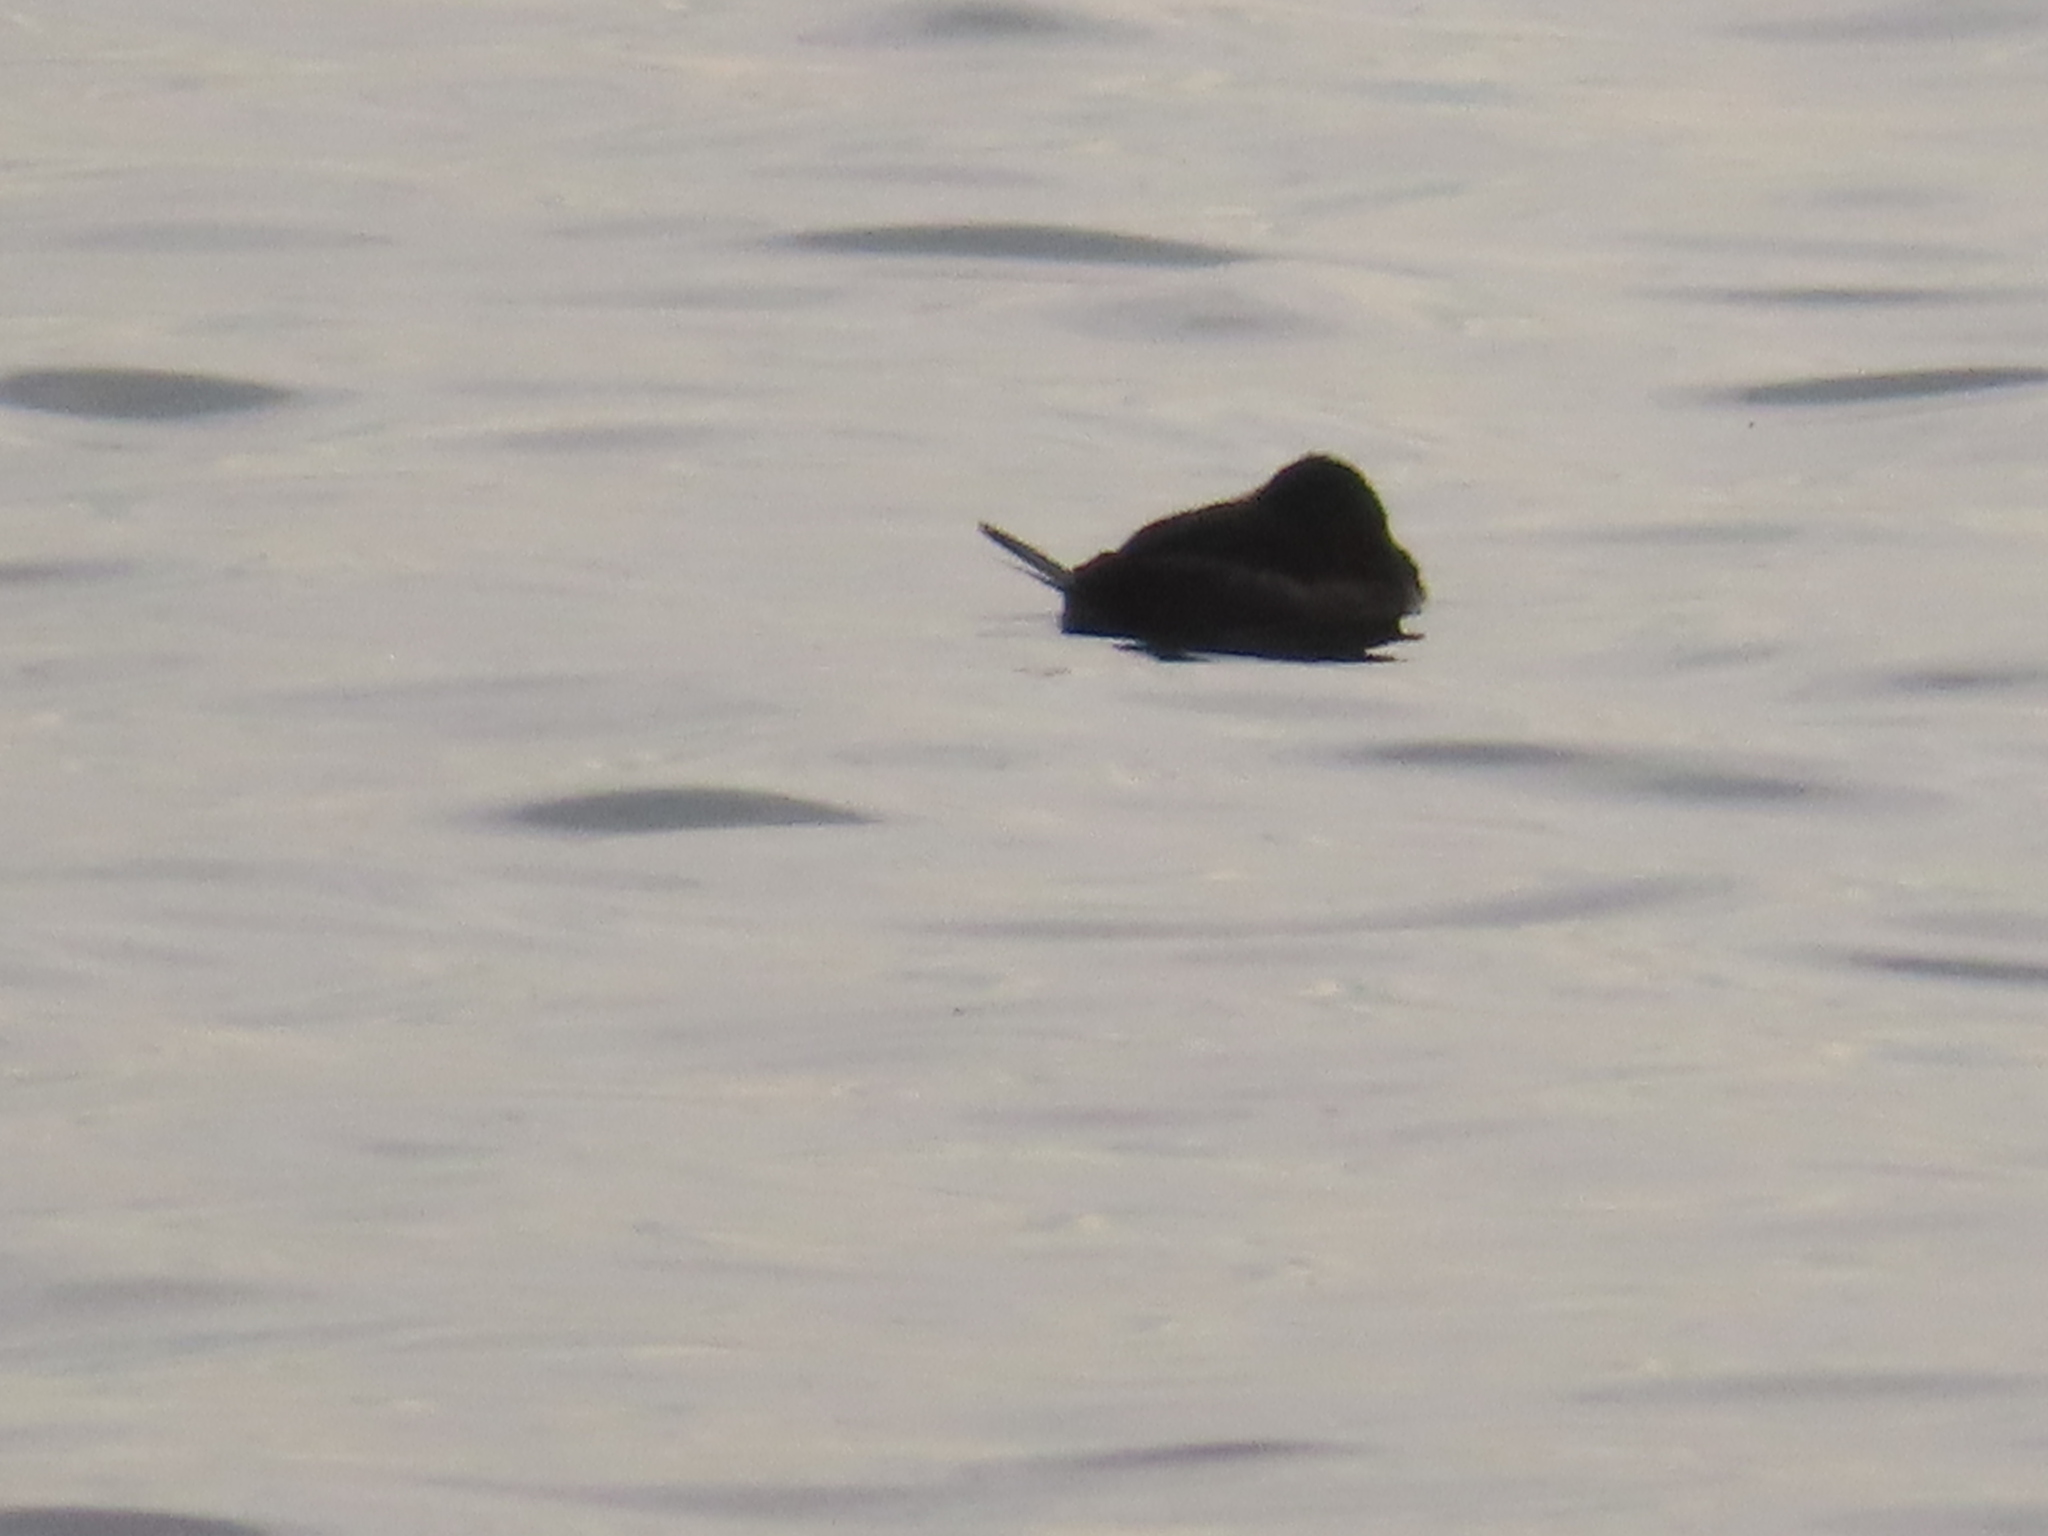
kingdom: Animalia
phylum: Chordata
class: Aves
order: Anseriformes
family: Anatidae
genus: Oxyura
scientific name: Oxyura jamaicensis
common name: Ruddy duck
